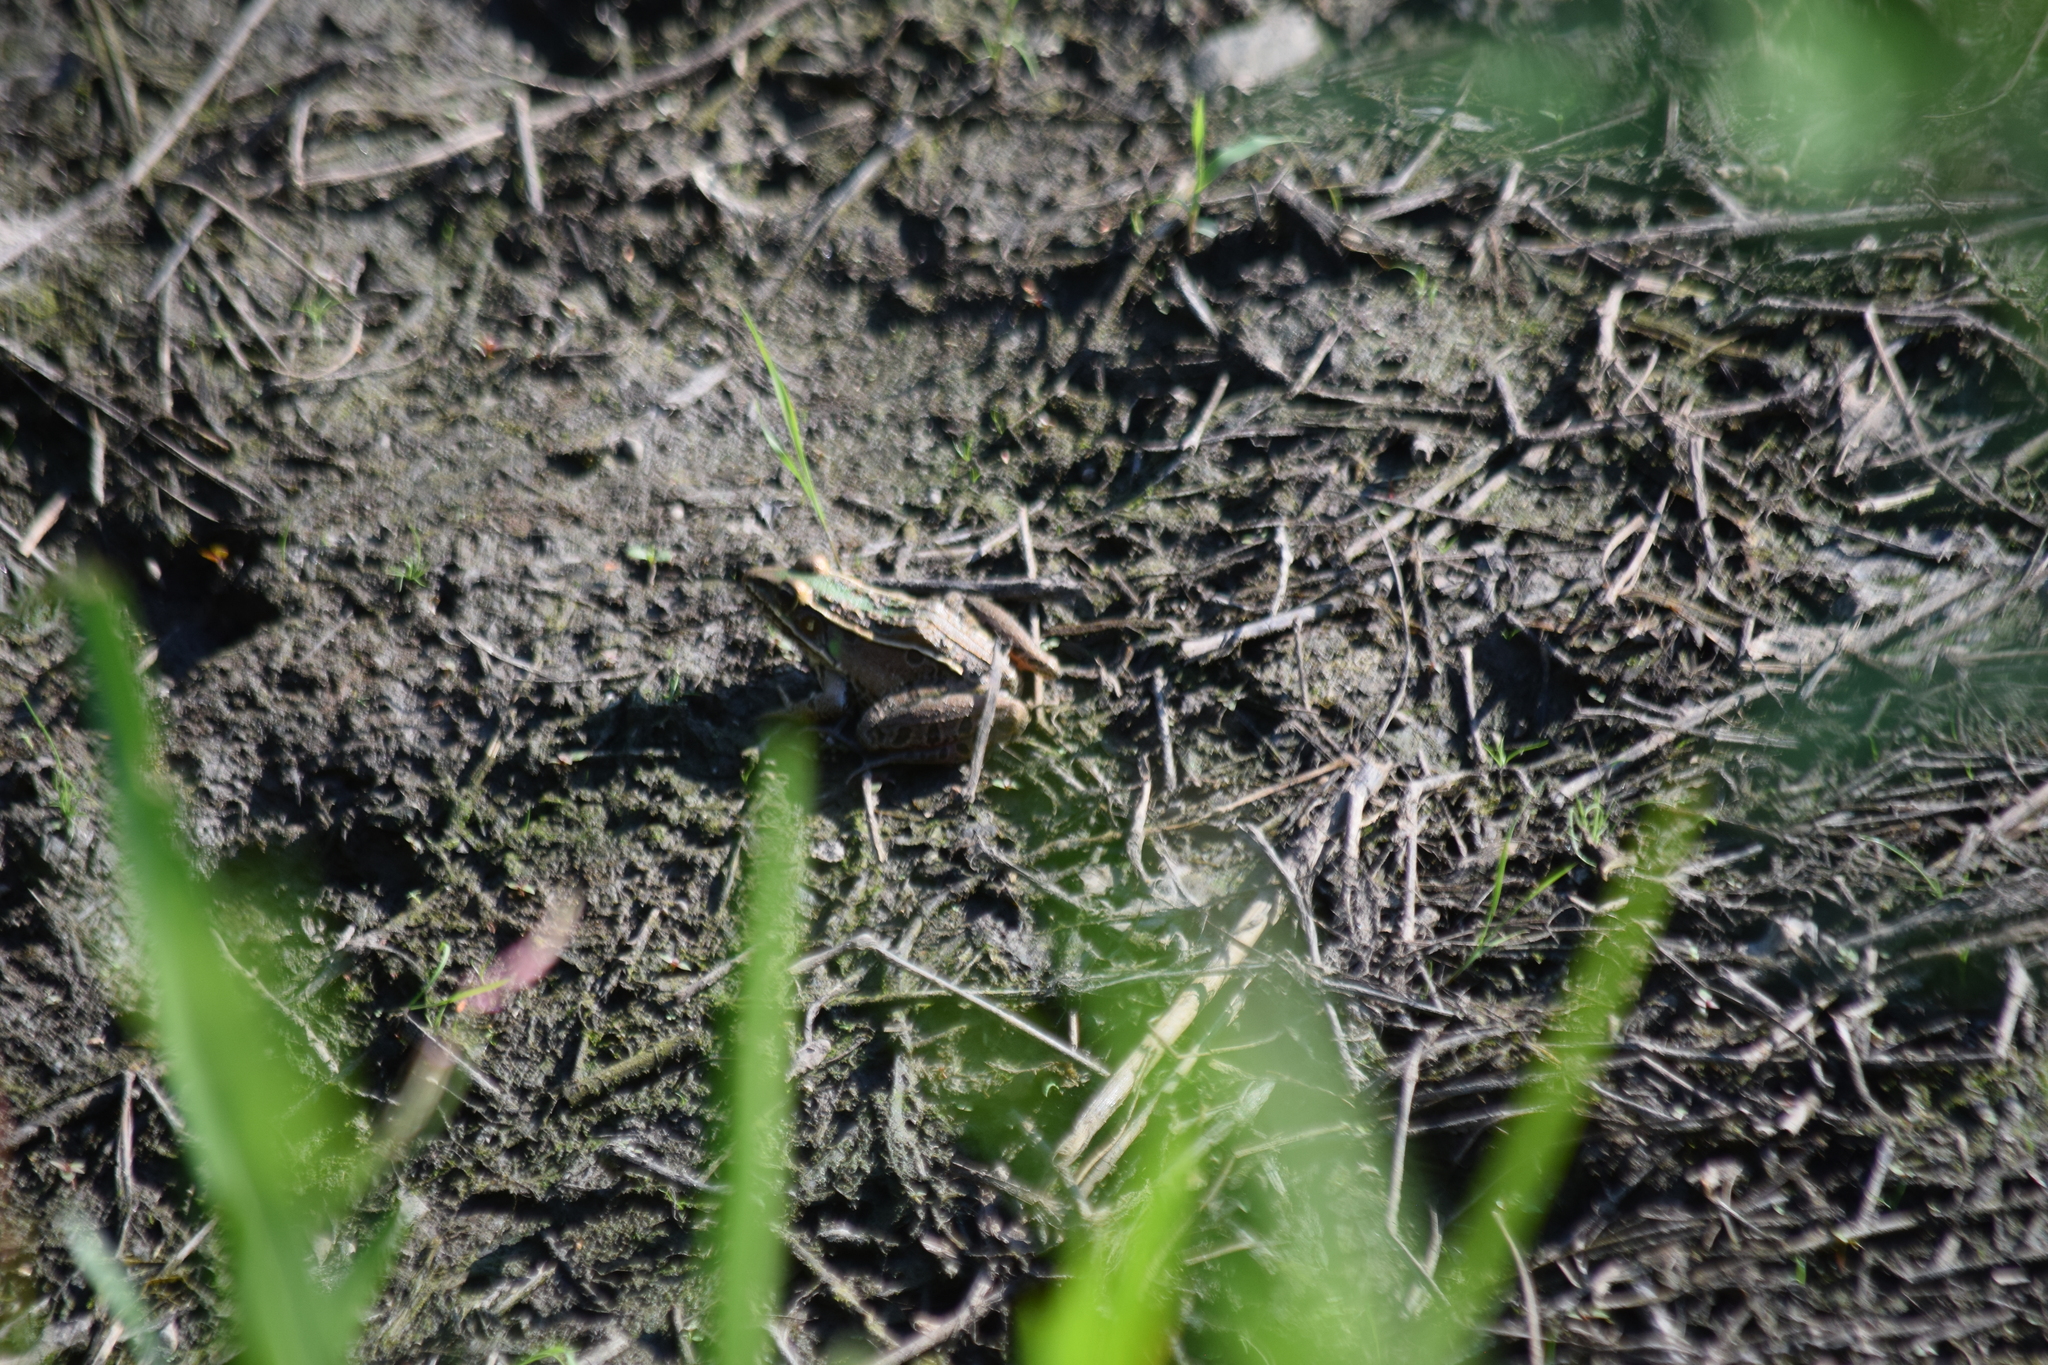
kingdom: Animalia
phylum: Chordata
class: Amphibia
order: Anura
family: Ranidae
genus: Lithobates
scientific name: Lithobates sphenocephalus
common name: Southern leopard frog
